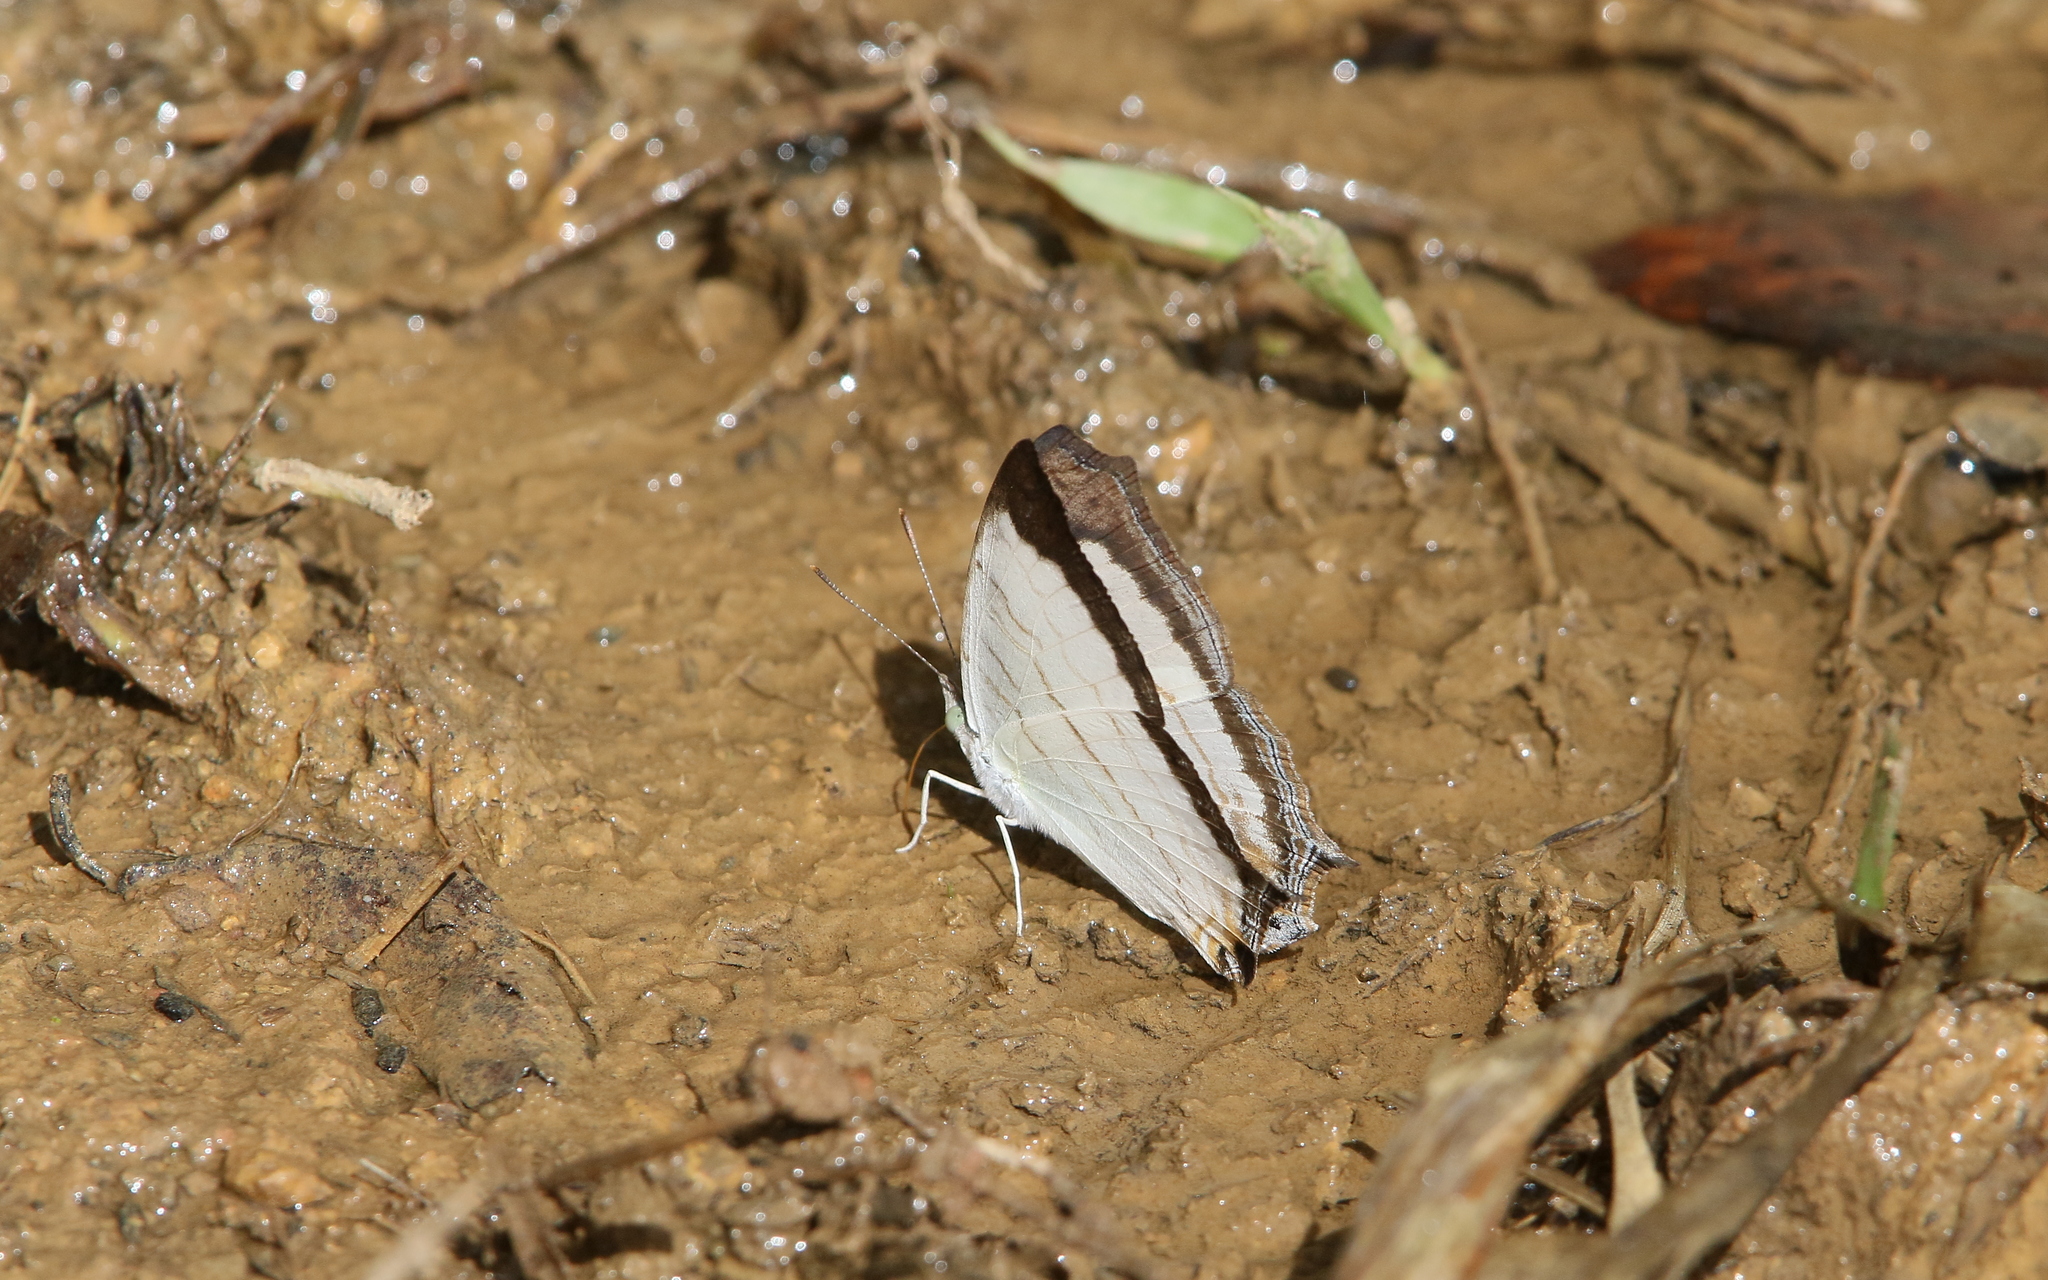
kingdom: Animalia
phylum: Arthropoda
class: Insecta
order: Lepidoptera
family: Nymphalidae
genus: Cyrestis
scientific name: Cyrestis themire
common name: Little mapwing
